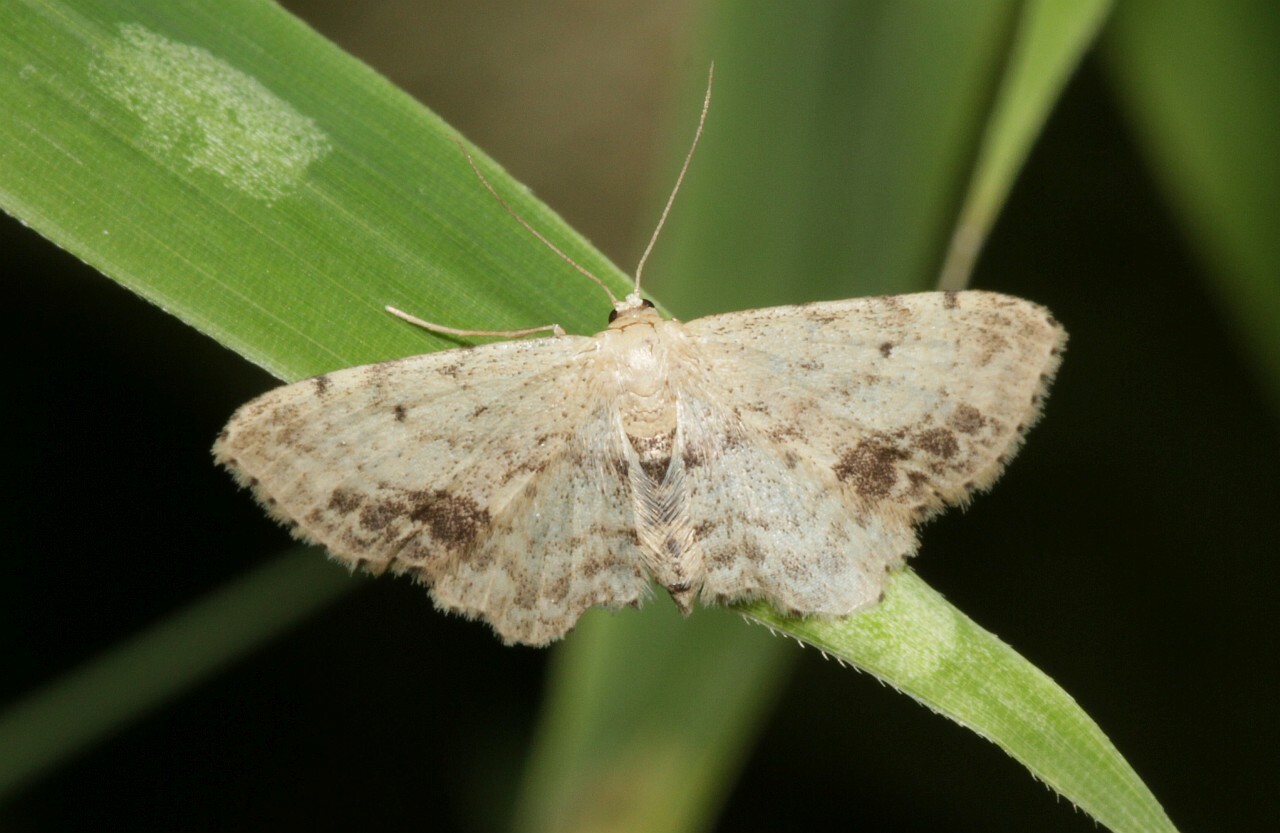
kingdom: Animalia
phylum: Arthropoda
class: Insecta
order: Lepidoptera
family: Geometridae
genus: Idaea
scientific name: Idaea dimidiata
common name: Single-dotted wave
